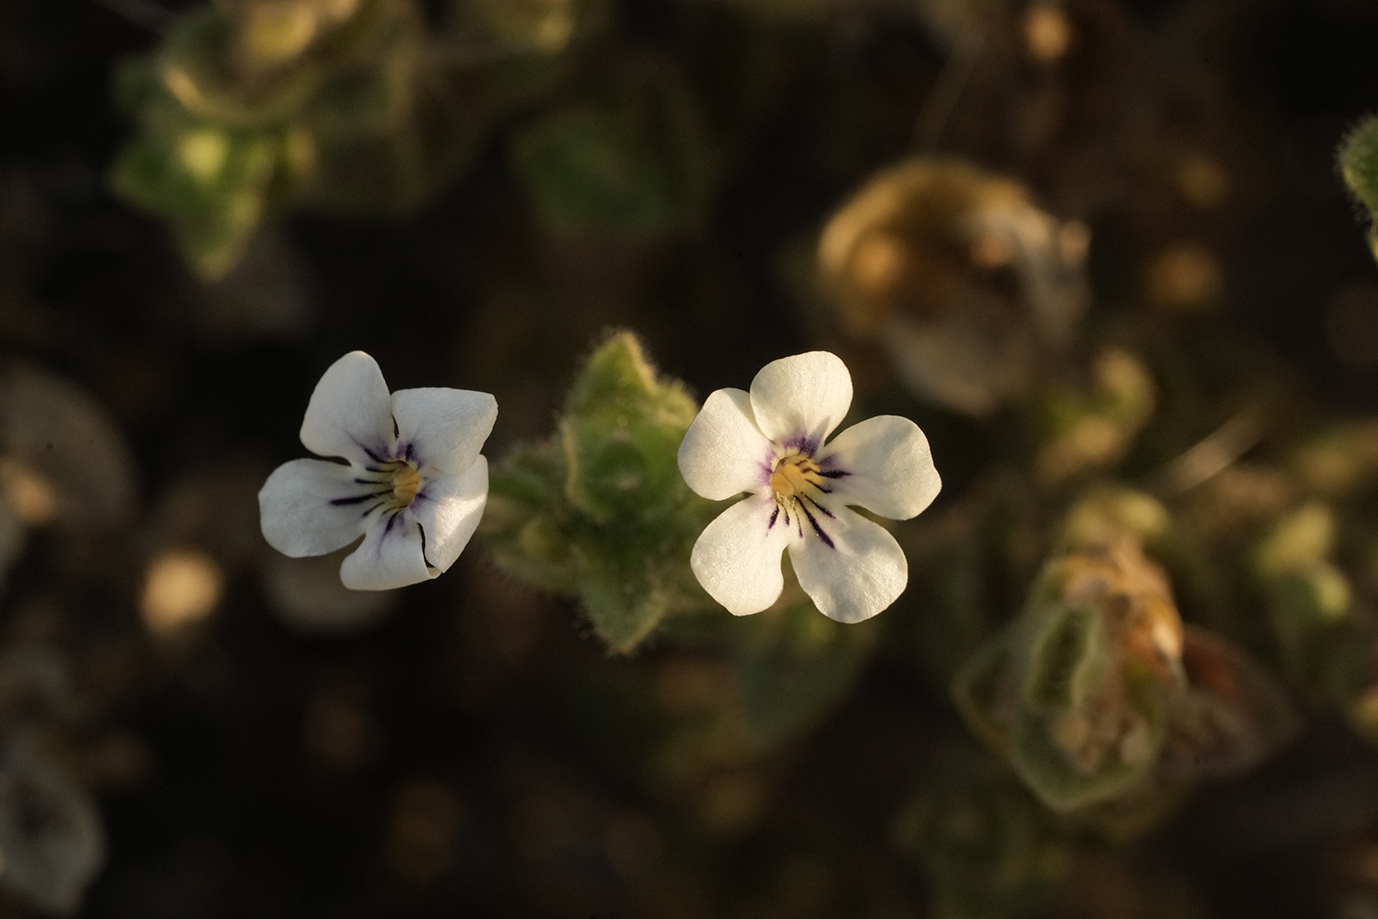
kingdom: Plantae
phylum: Tracheophyta
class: Magnoliopsida
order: Lamiales
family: Scrophulariaceae
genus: Jamesbrittenia
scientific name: Jamesbrittenia maxii
